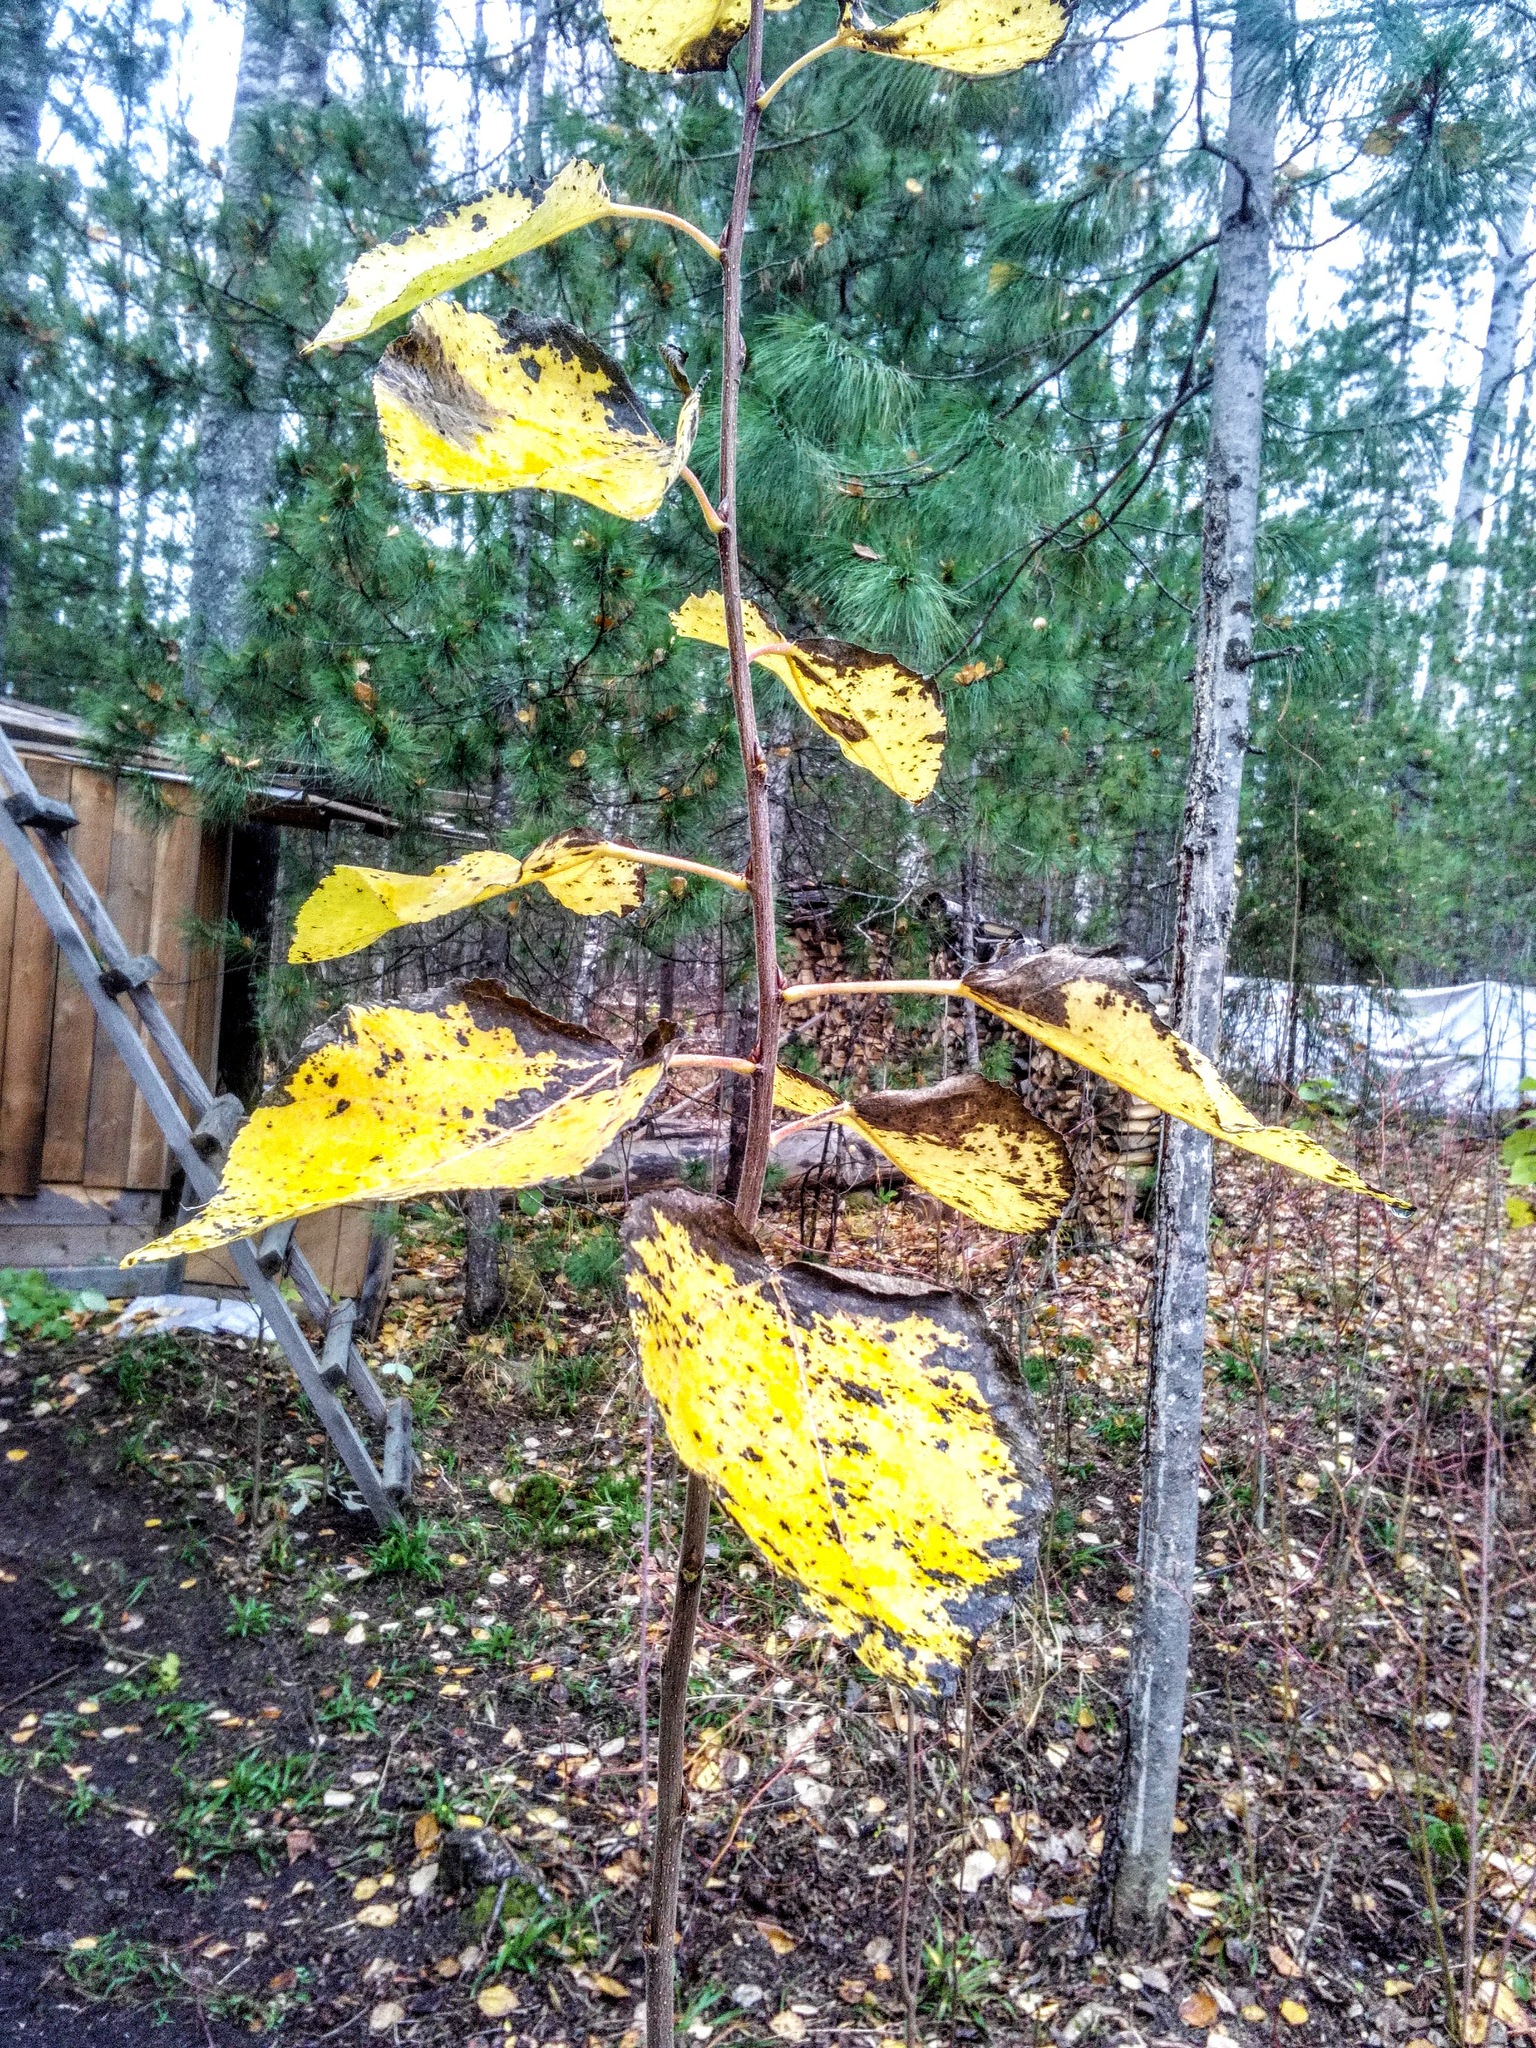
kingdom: Plantae
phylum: Tracheophyta
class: Magnoliopsida
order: Malpighiales
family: Salicaceae
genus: Populus
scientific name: Populus tremula
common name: European aspen
